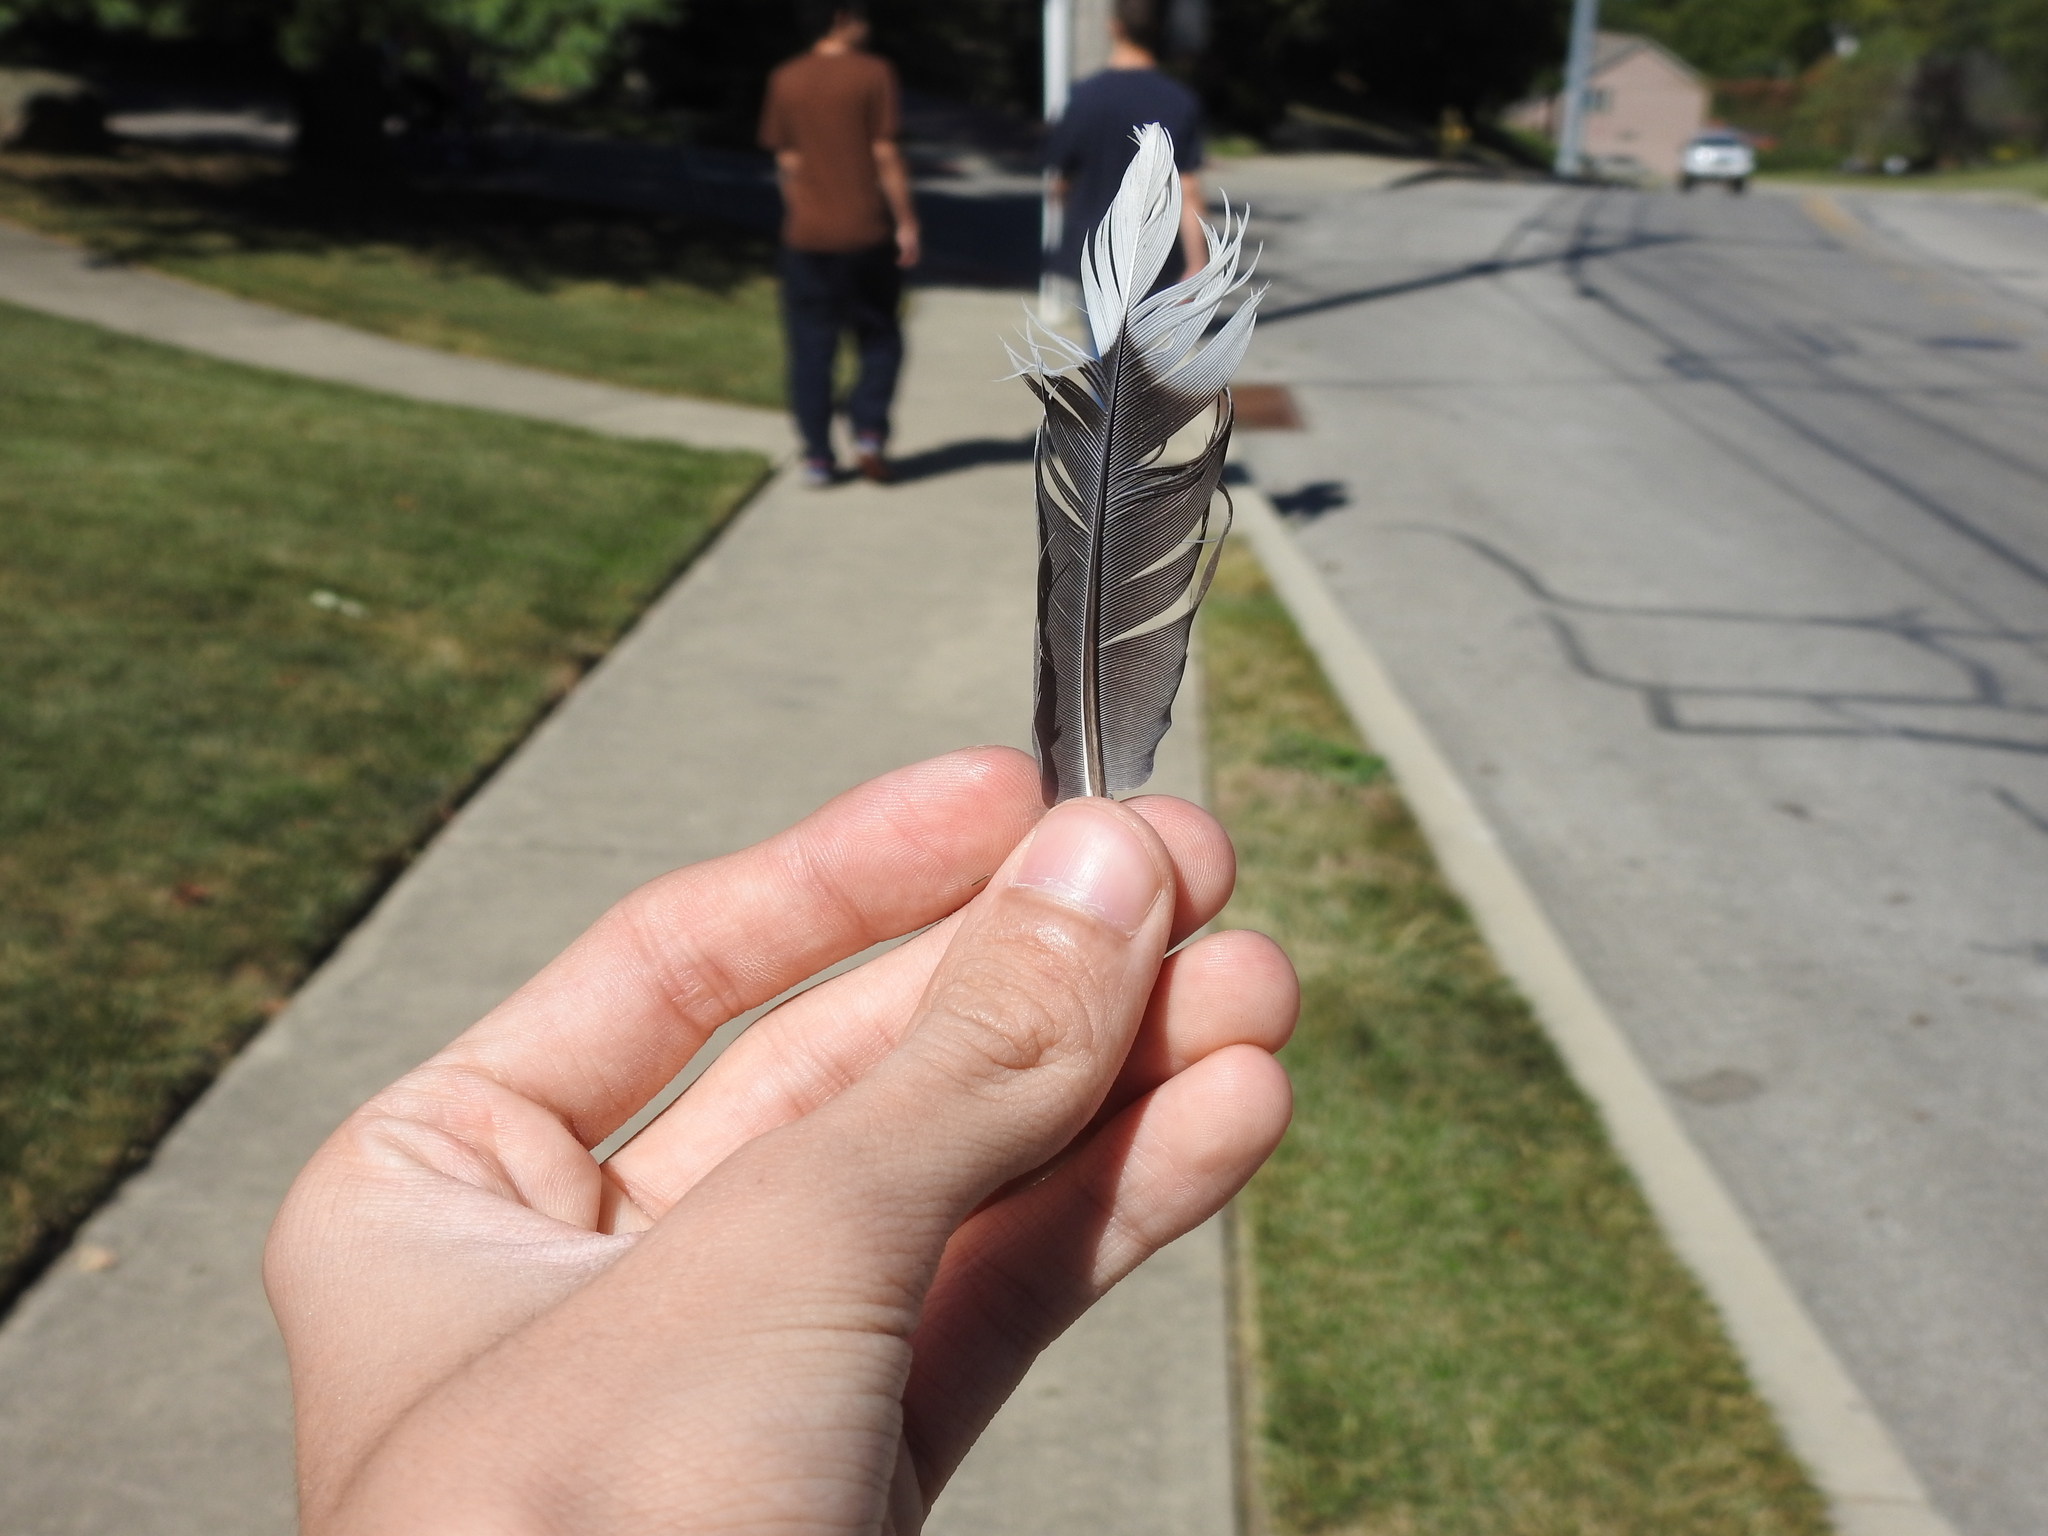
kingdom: Animalia
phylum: Chordata
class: Aves
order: Columbiformes
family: Columbidae
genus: Zenaida
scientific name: Zenaida macroura
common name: Mourning dove
